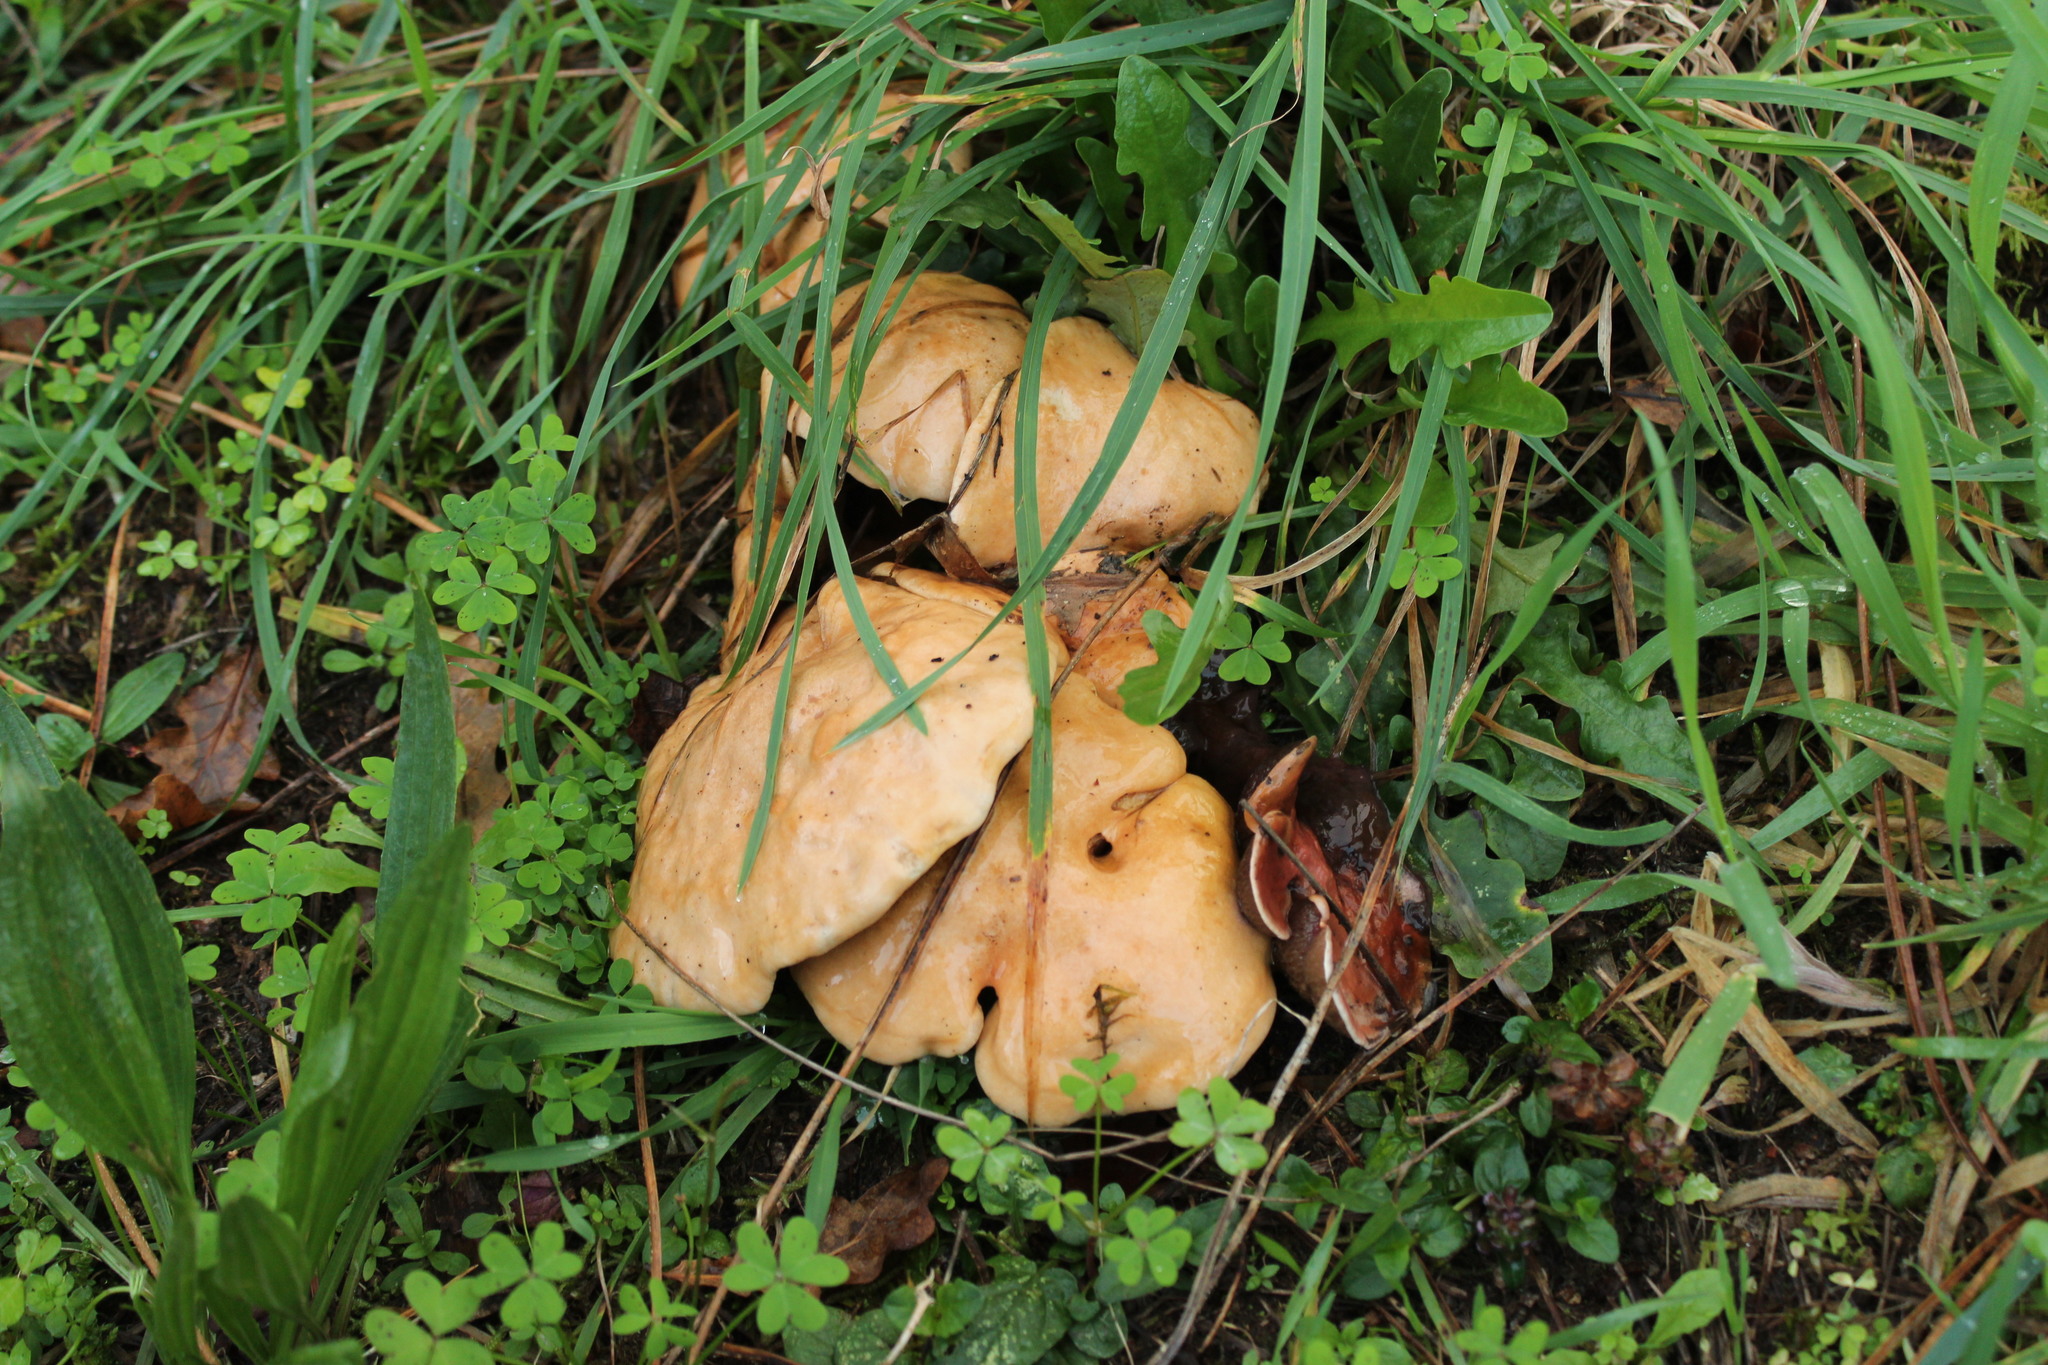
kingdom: Fungi
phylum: Basidiomycota
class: Agaricomycetes
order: Boletales
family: Suillaceae
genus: Suillus
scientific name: Suillus bovinus
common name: Bovine bolete
